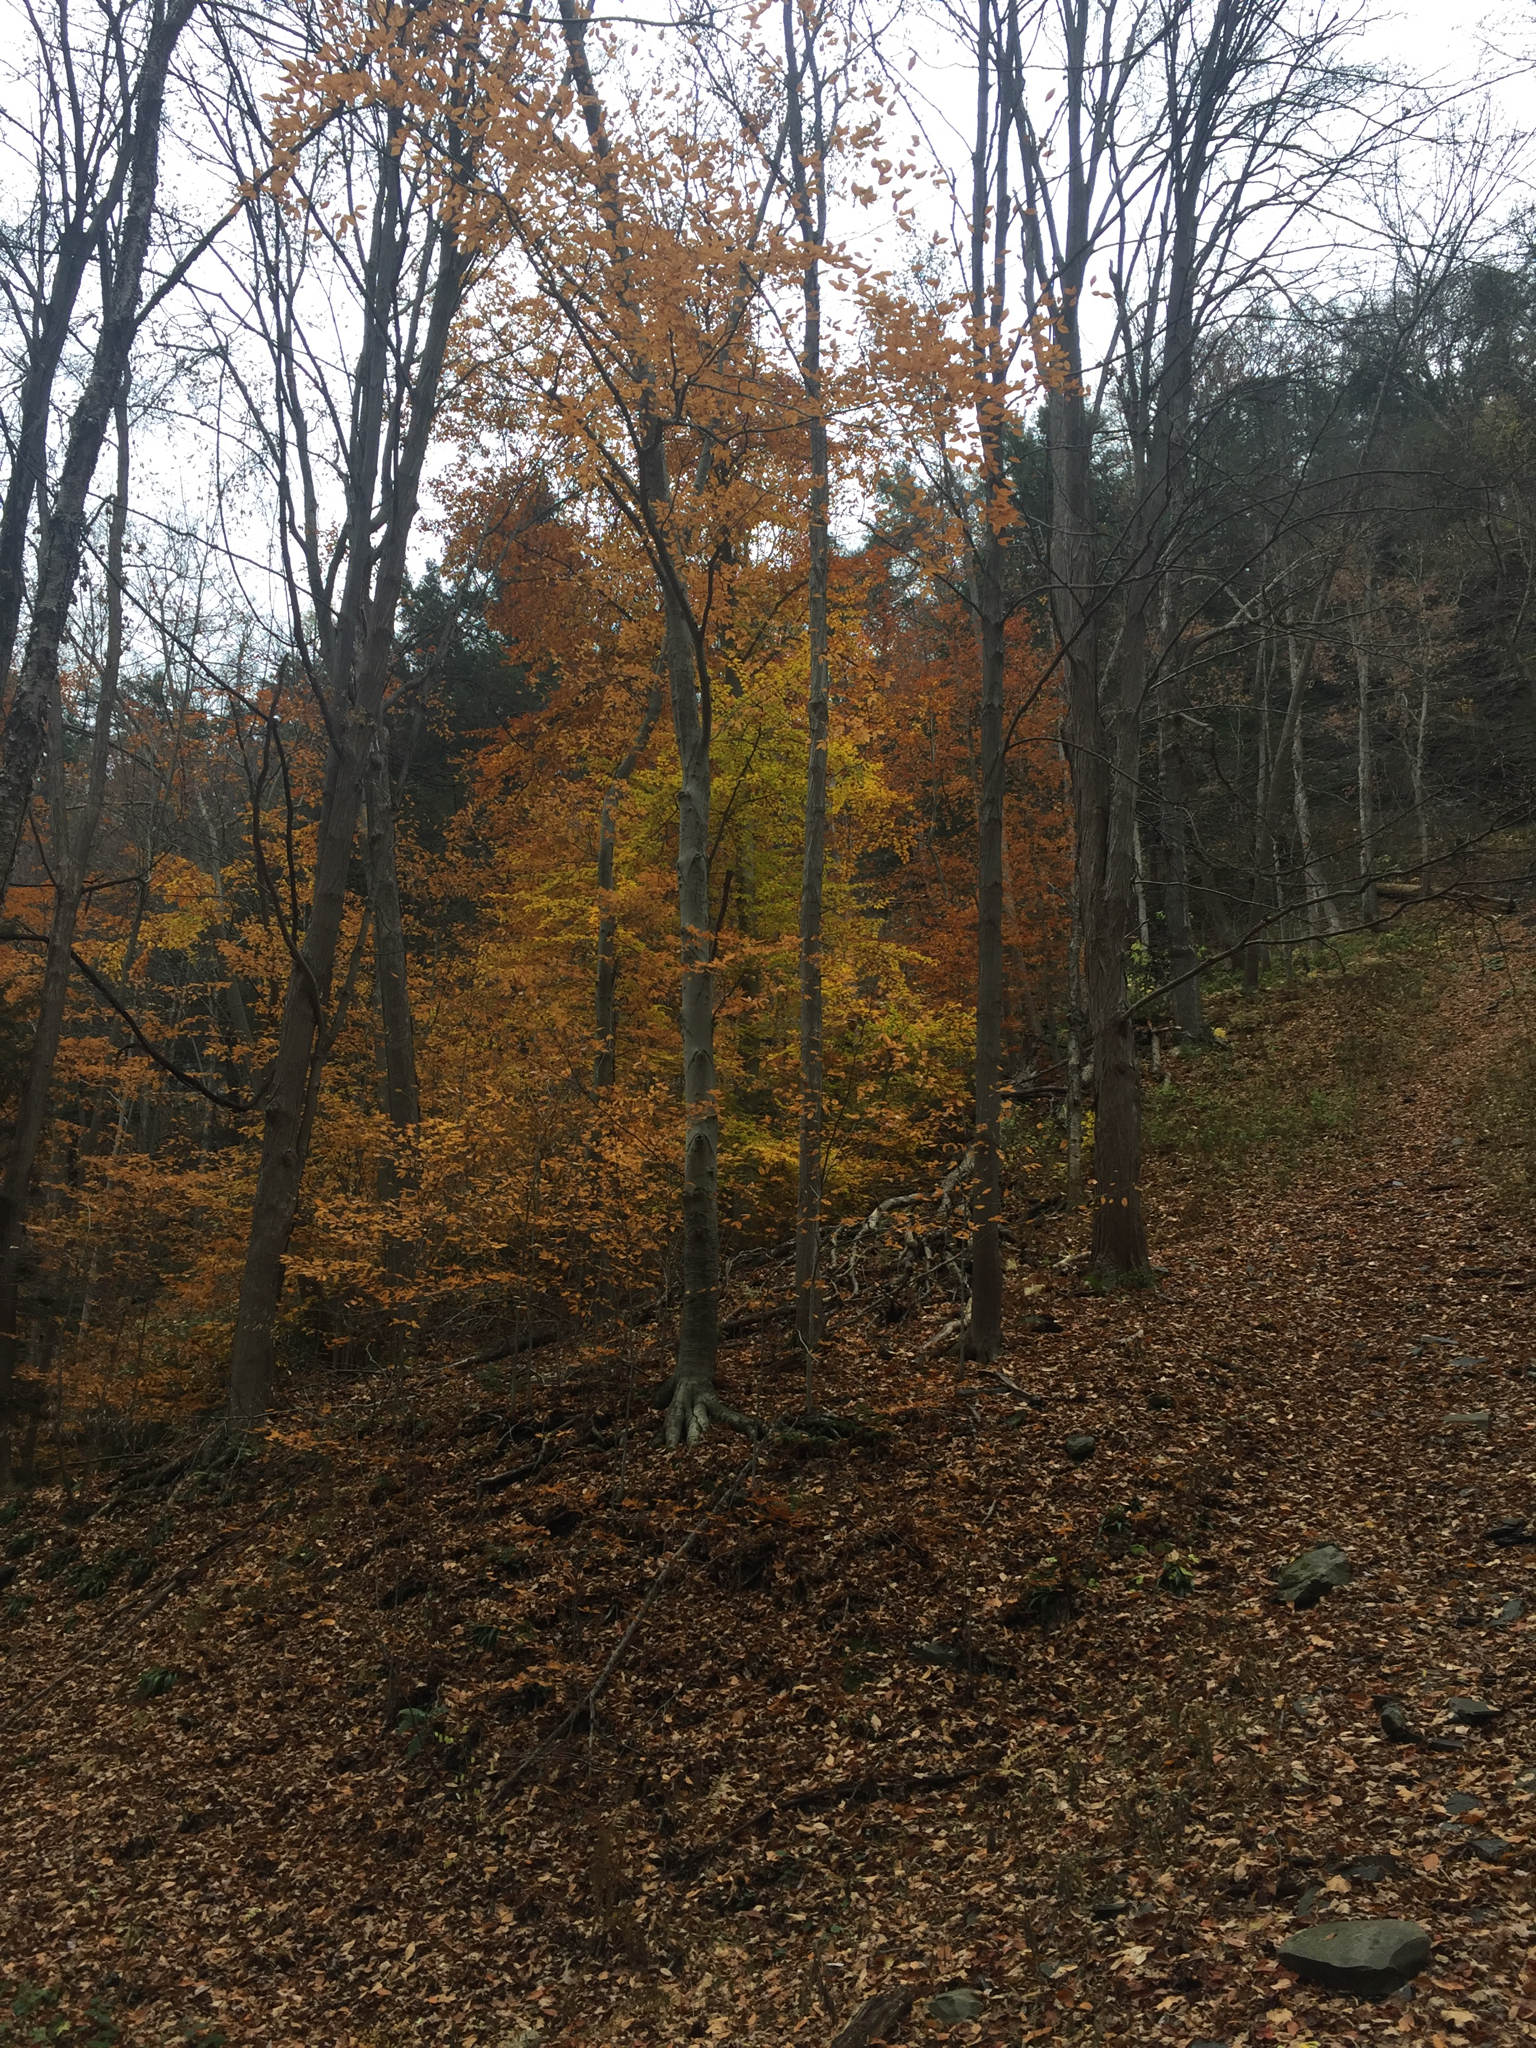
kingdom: Plantae
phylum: Tracheophyta
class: Magnoliopsida
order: Fagales
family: Fagaceae
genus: Fagus
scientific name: Fagus grandifolia
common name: American beech
